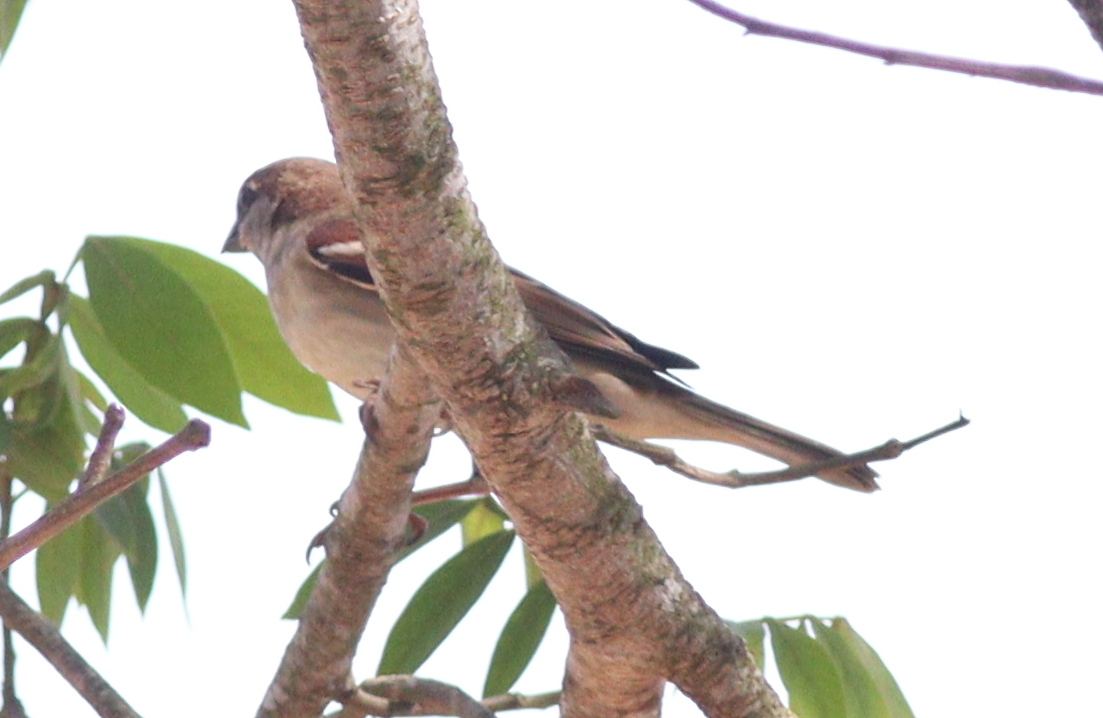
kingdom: Animalia
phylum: Chordata
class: Aves
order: Passeriformes
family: Passeridae
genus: Passer
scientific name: Passer domesticus
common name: House sparrow
